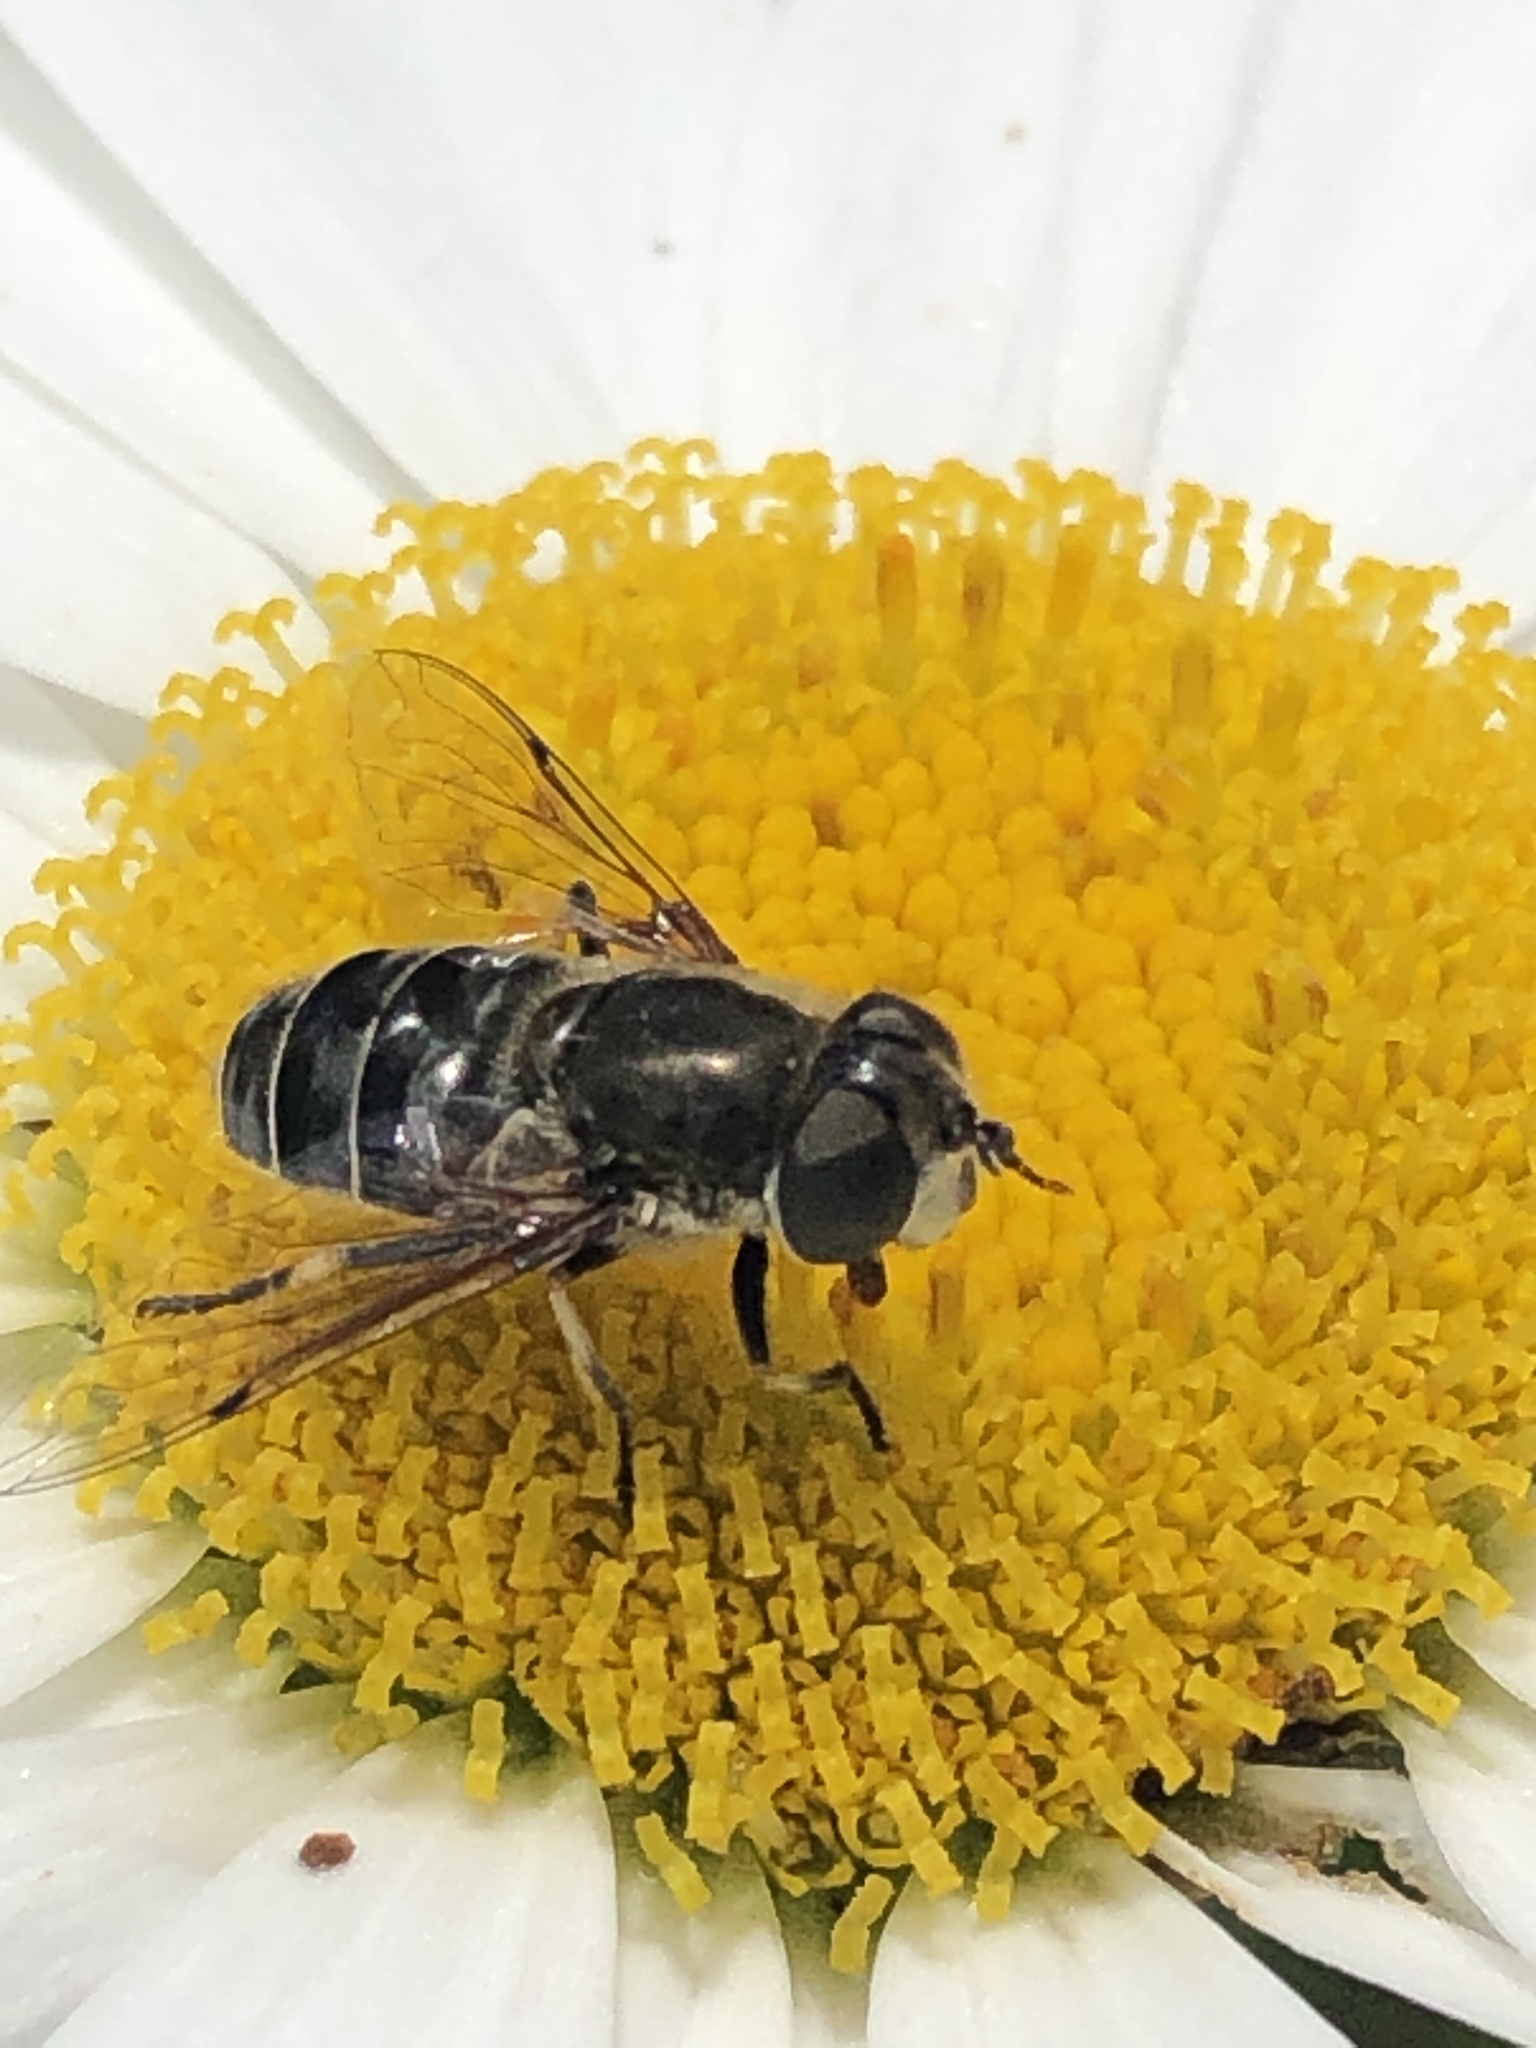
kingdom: Animalia
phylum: Arthropoda
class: Insecta
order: Diptera
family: Syrphidae
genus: Eristalis
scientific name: Eristalis dimidiata
